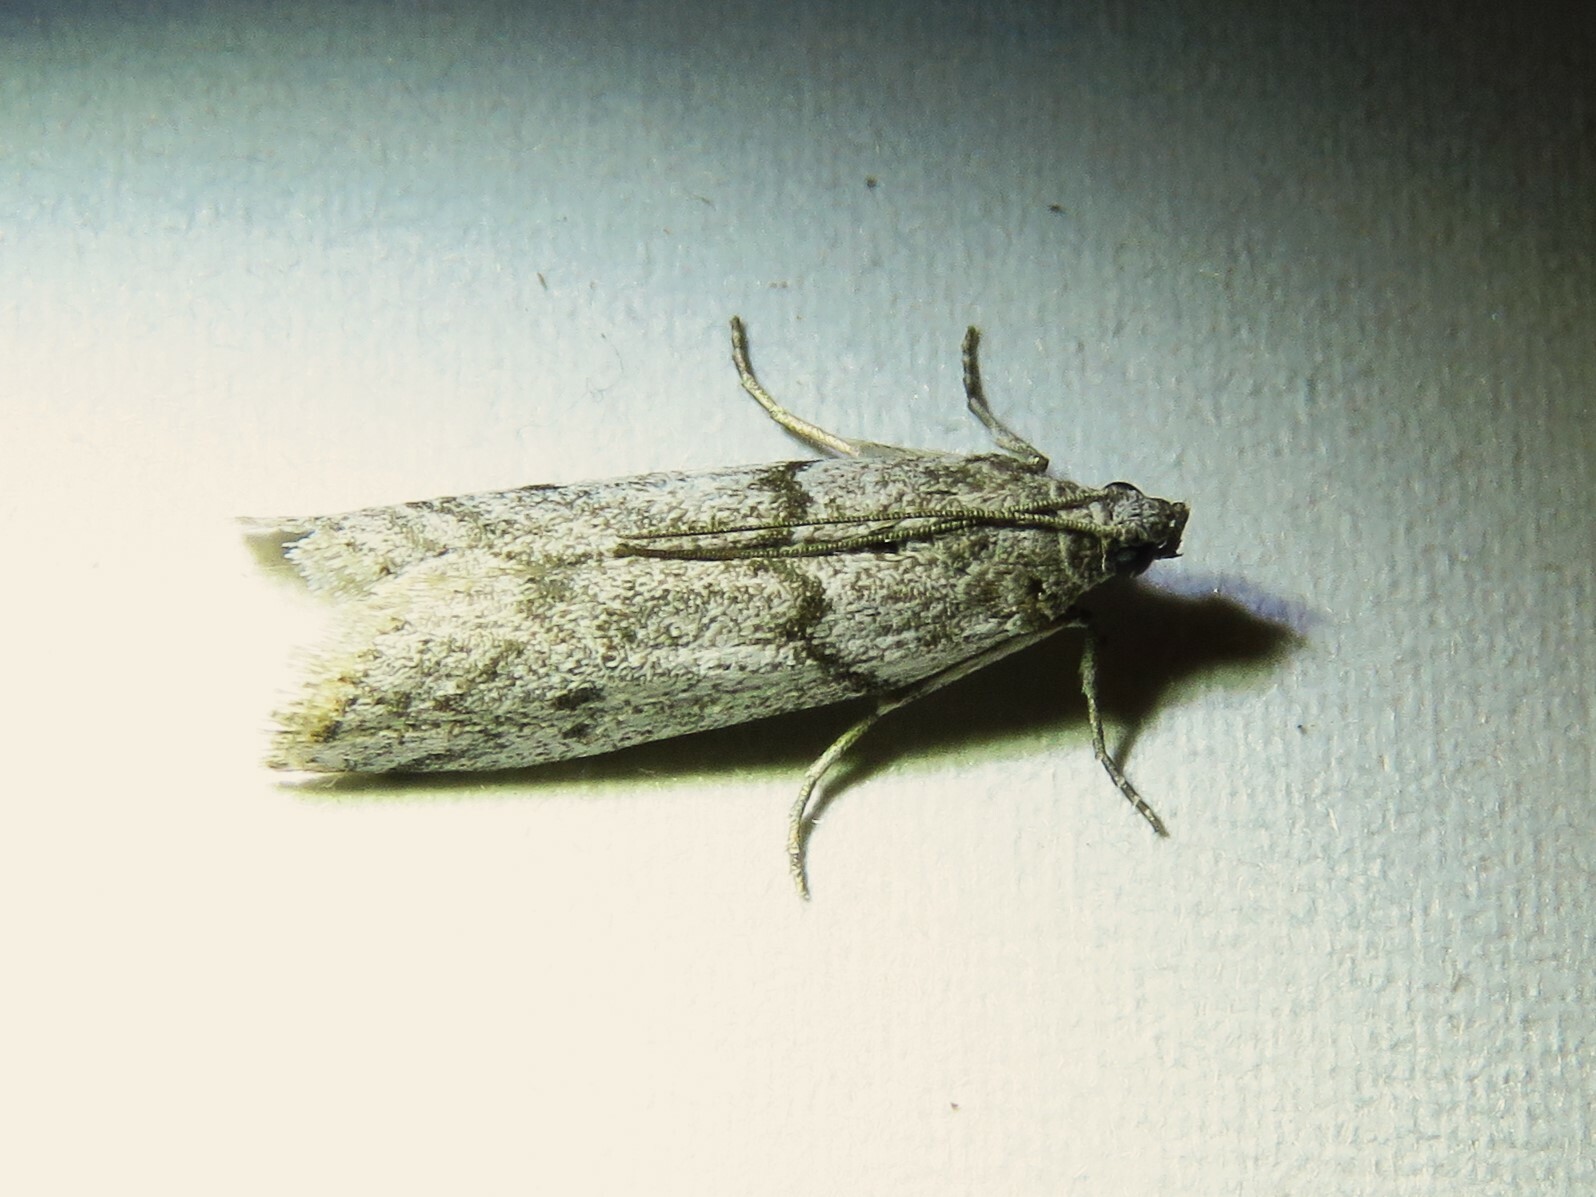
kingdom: Animalia
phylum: Arthropoda
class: Insecta
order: Lepidoptera
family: Pyralidae
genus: Myelopsis
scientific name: Myelopsis alatella
